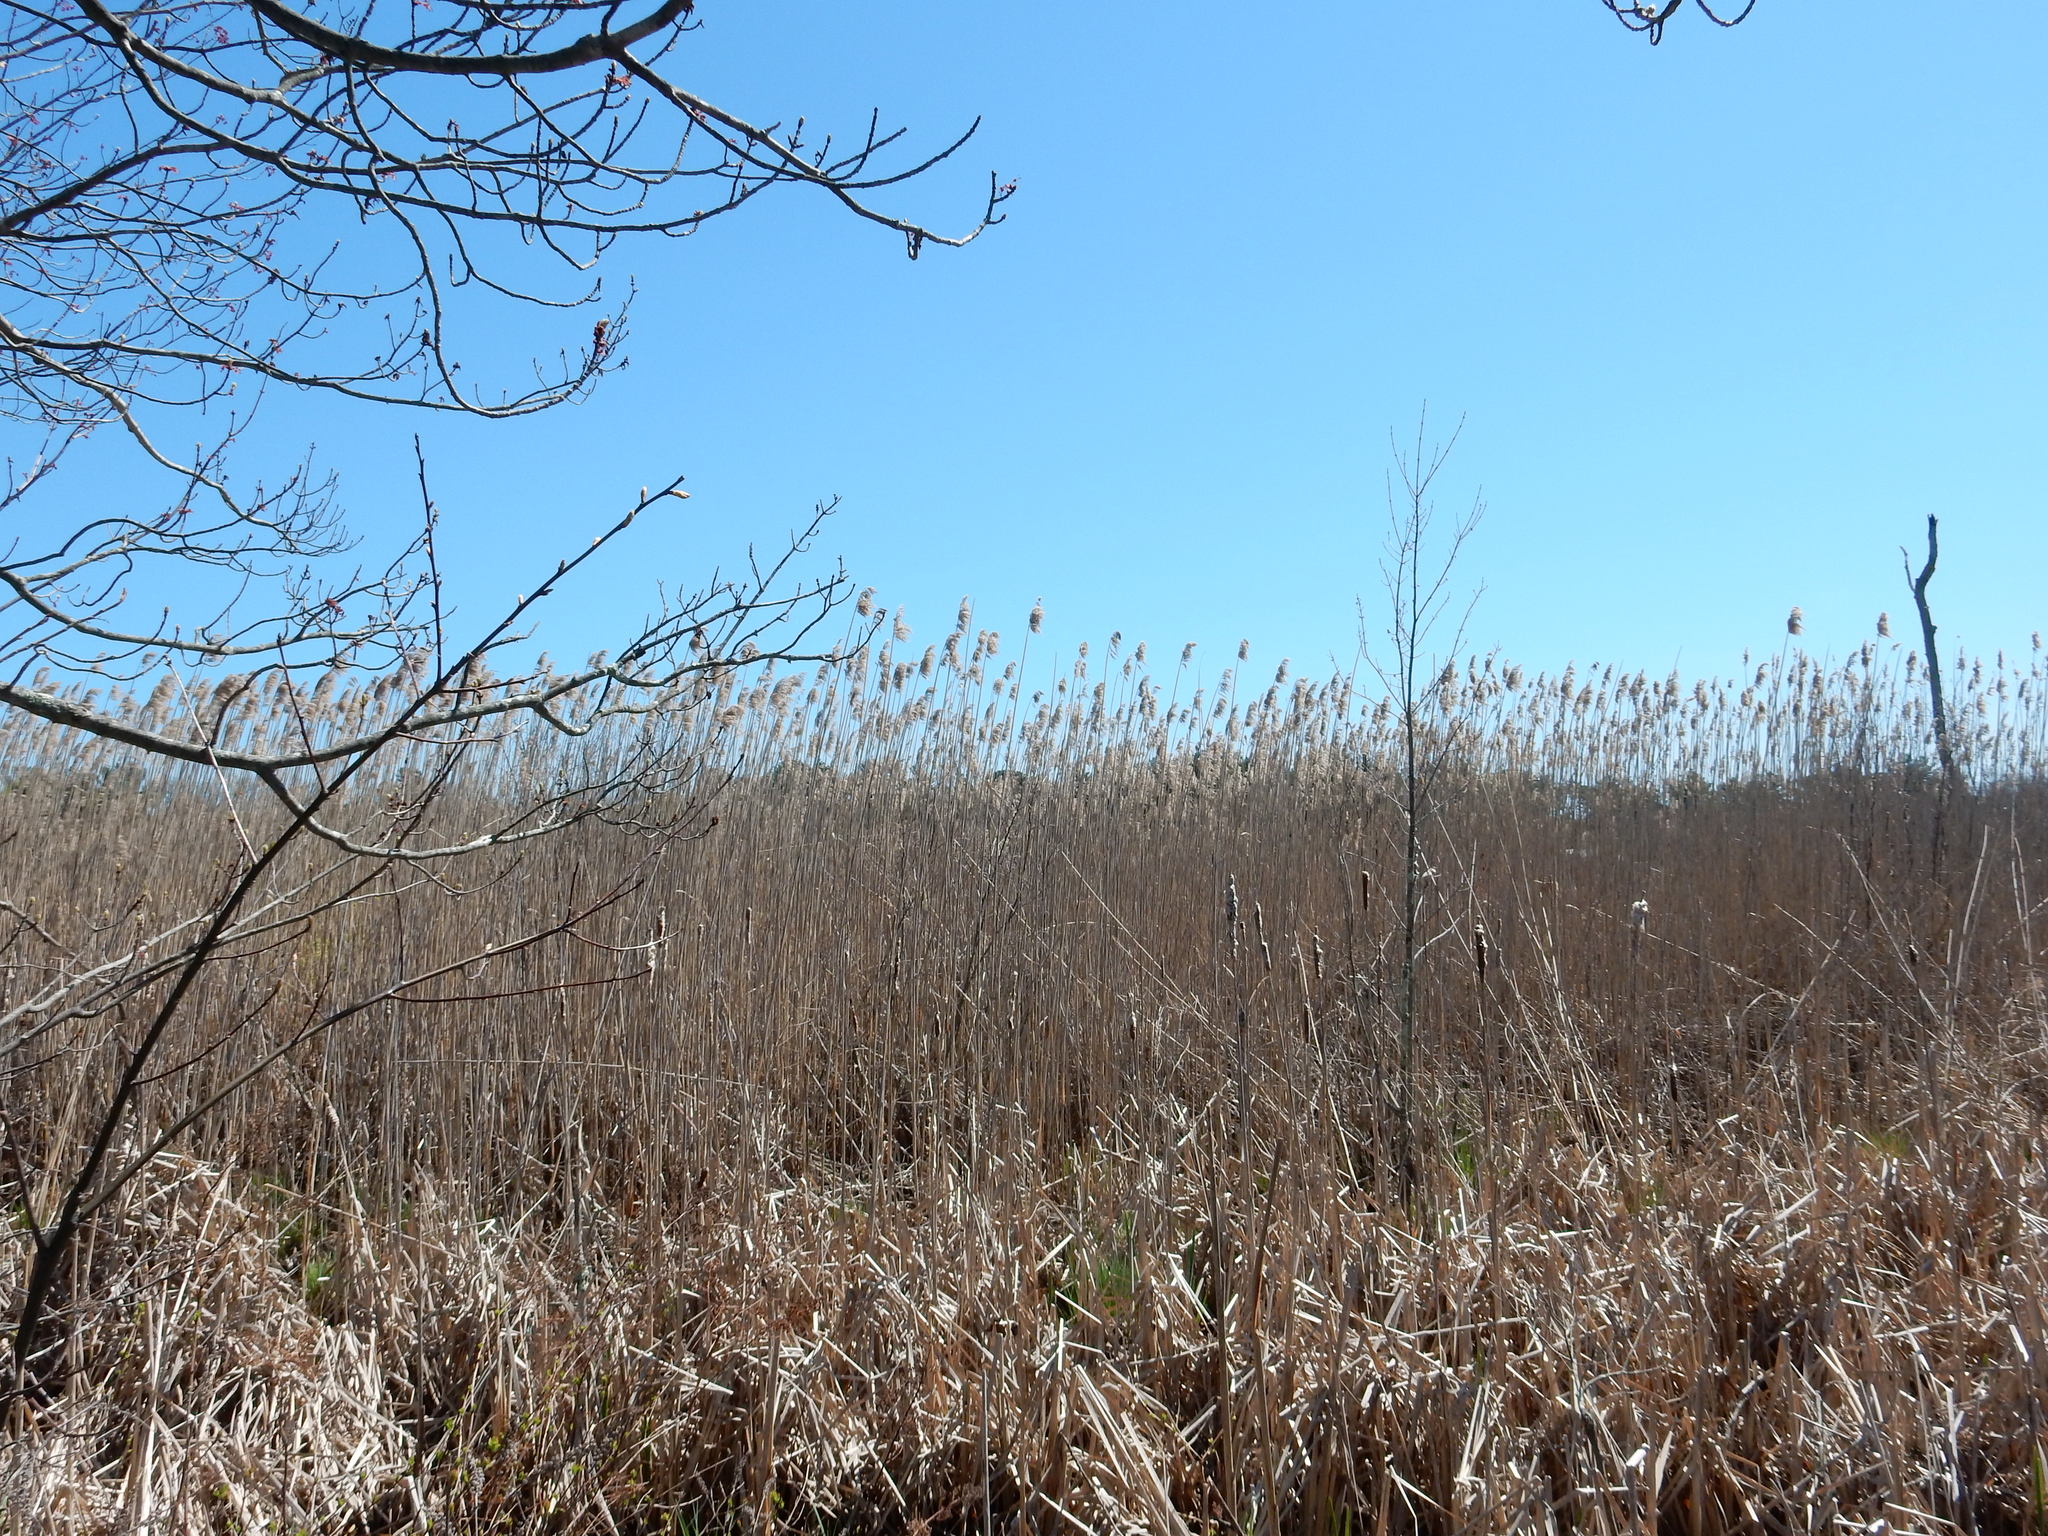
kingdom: Plantae
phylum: Tracheophyta
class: Liliopsida
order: Poales
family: Poaceae
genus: Phragmites
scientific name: Phragmites australis
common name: Common reed
